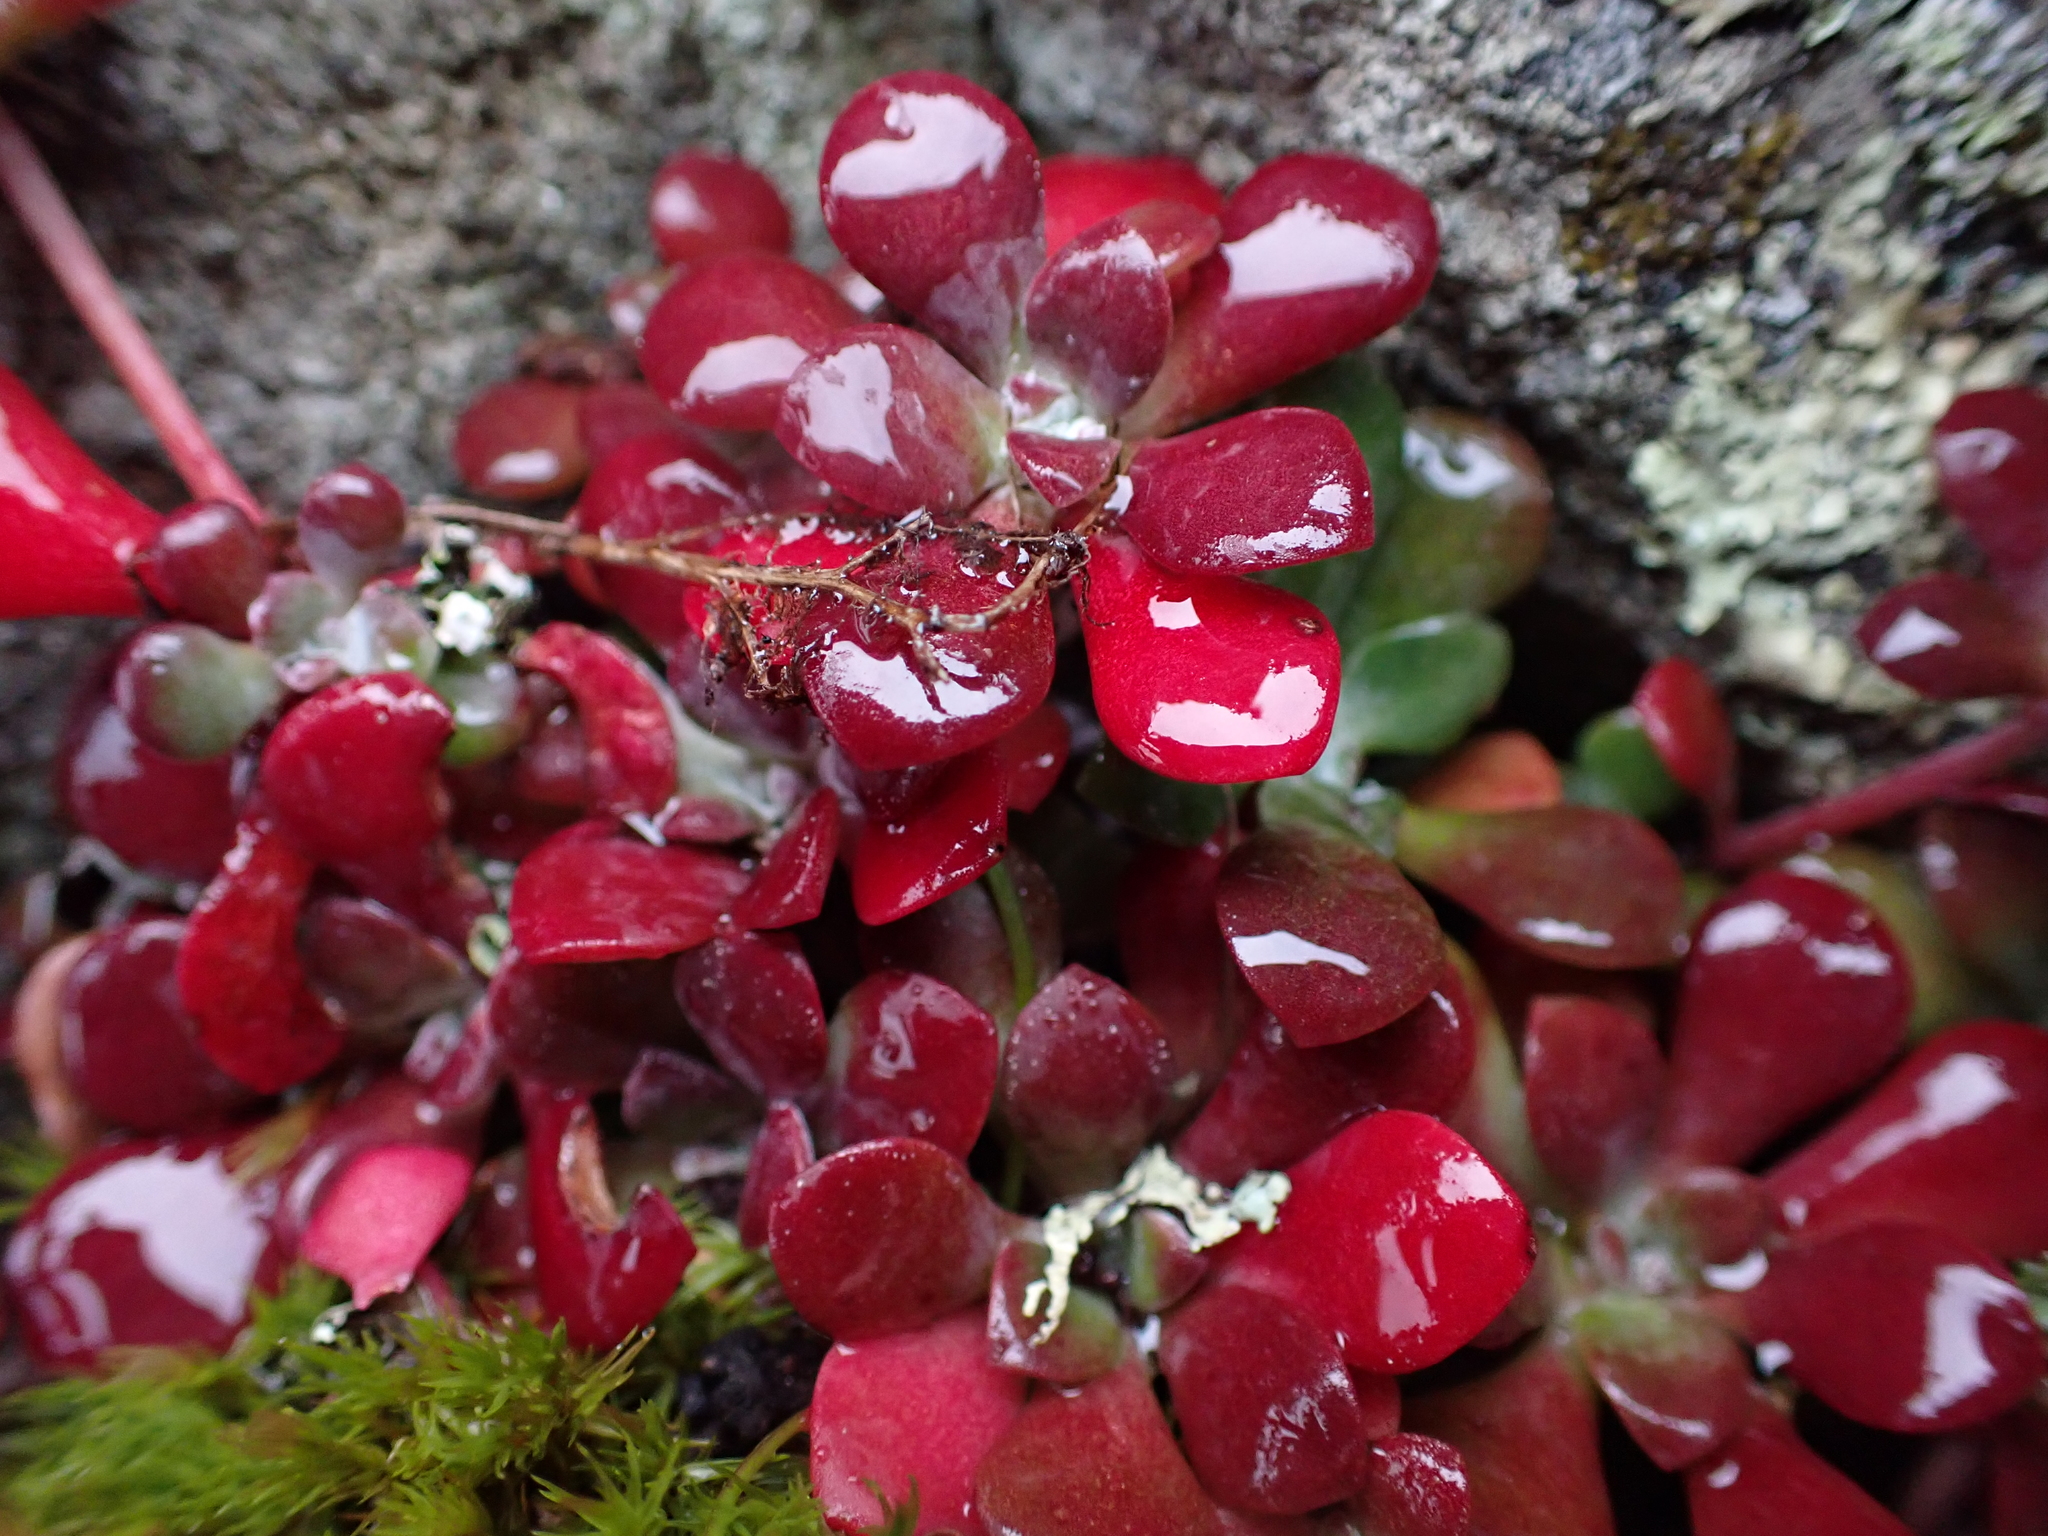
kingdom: Plantae
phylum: Tracheophyta
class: Magnoliopsida
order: Saxifragales
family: Crassulaceae
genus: Sedum
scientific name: Sedum spathulifolium
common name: Colorado stonecrop
